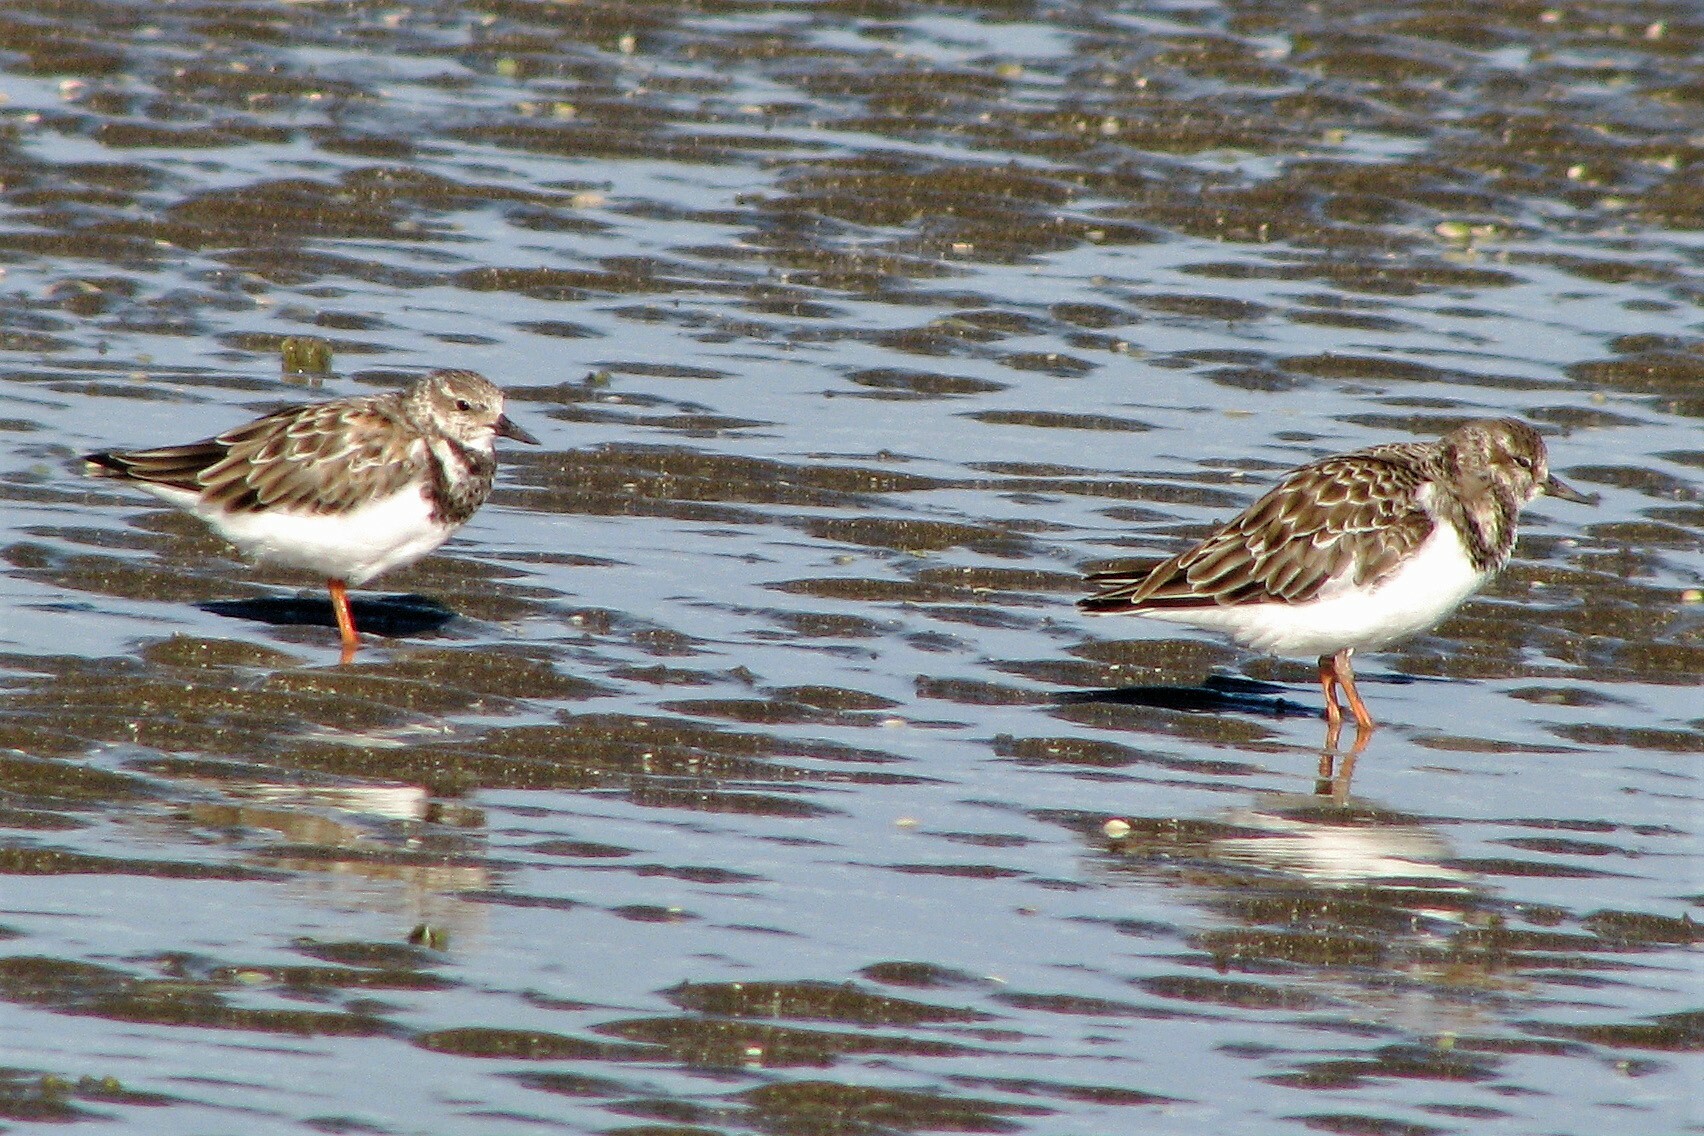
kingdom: Animalia
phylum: Chordata
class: Aves
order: Charadriiformes
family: Scolopacidae
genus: Arenaria
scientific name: Arenaria interpres
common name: Ruddy turnstone
